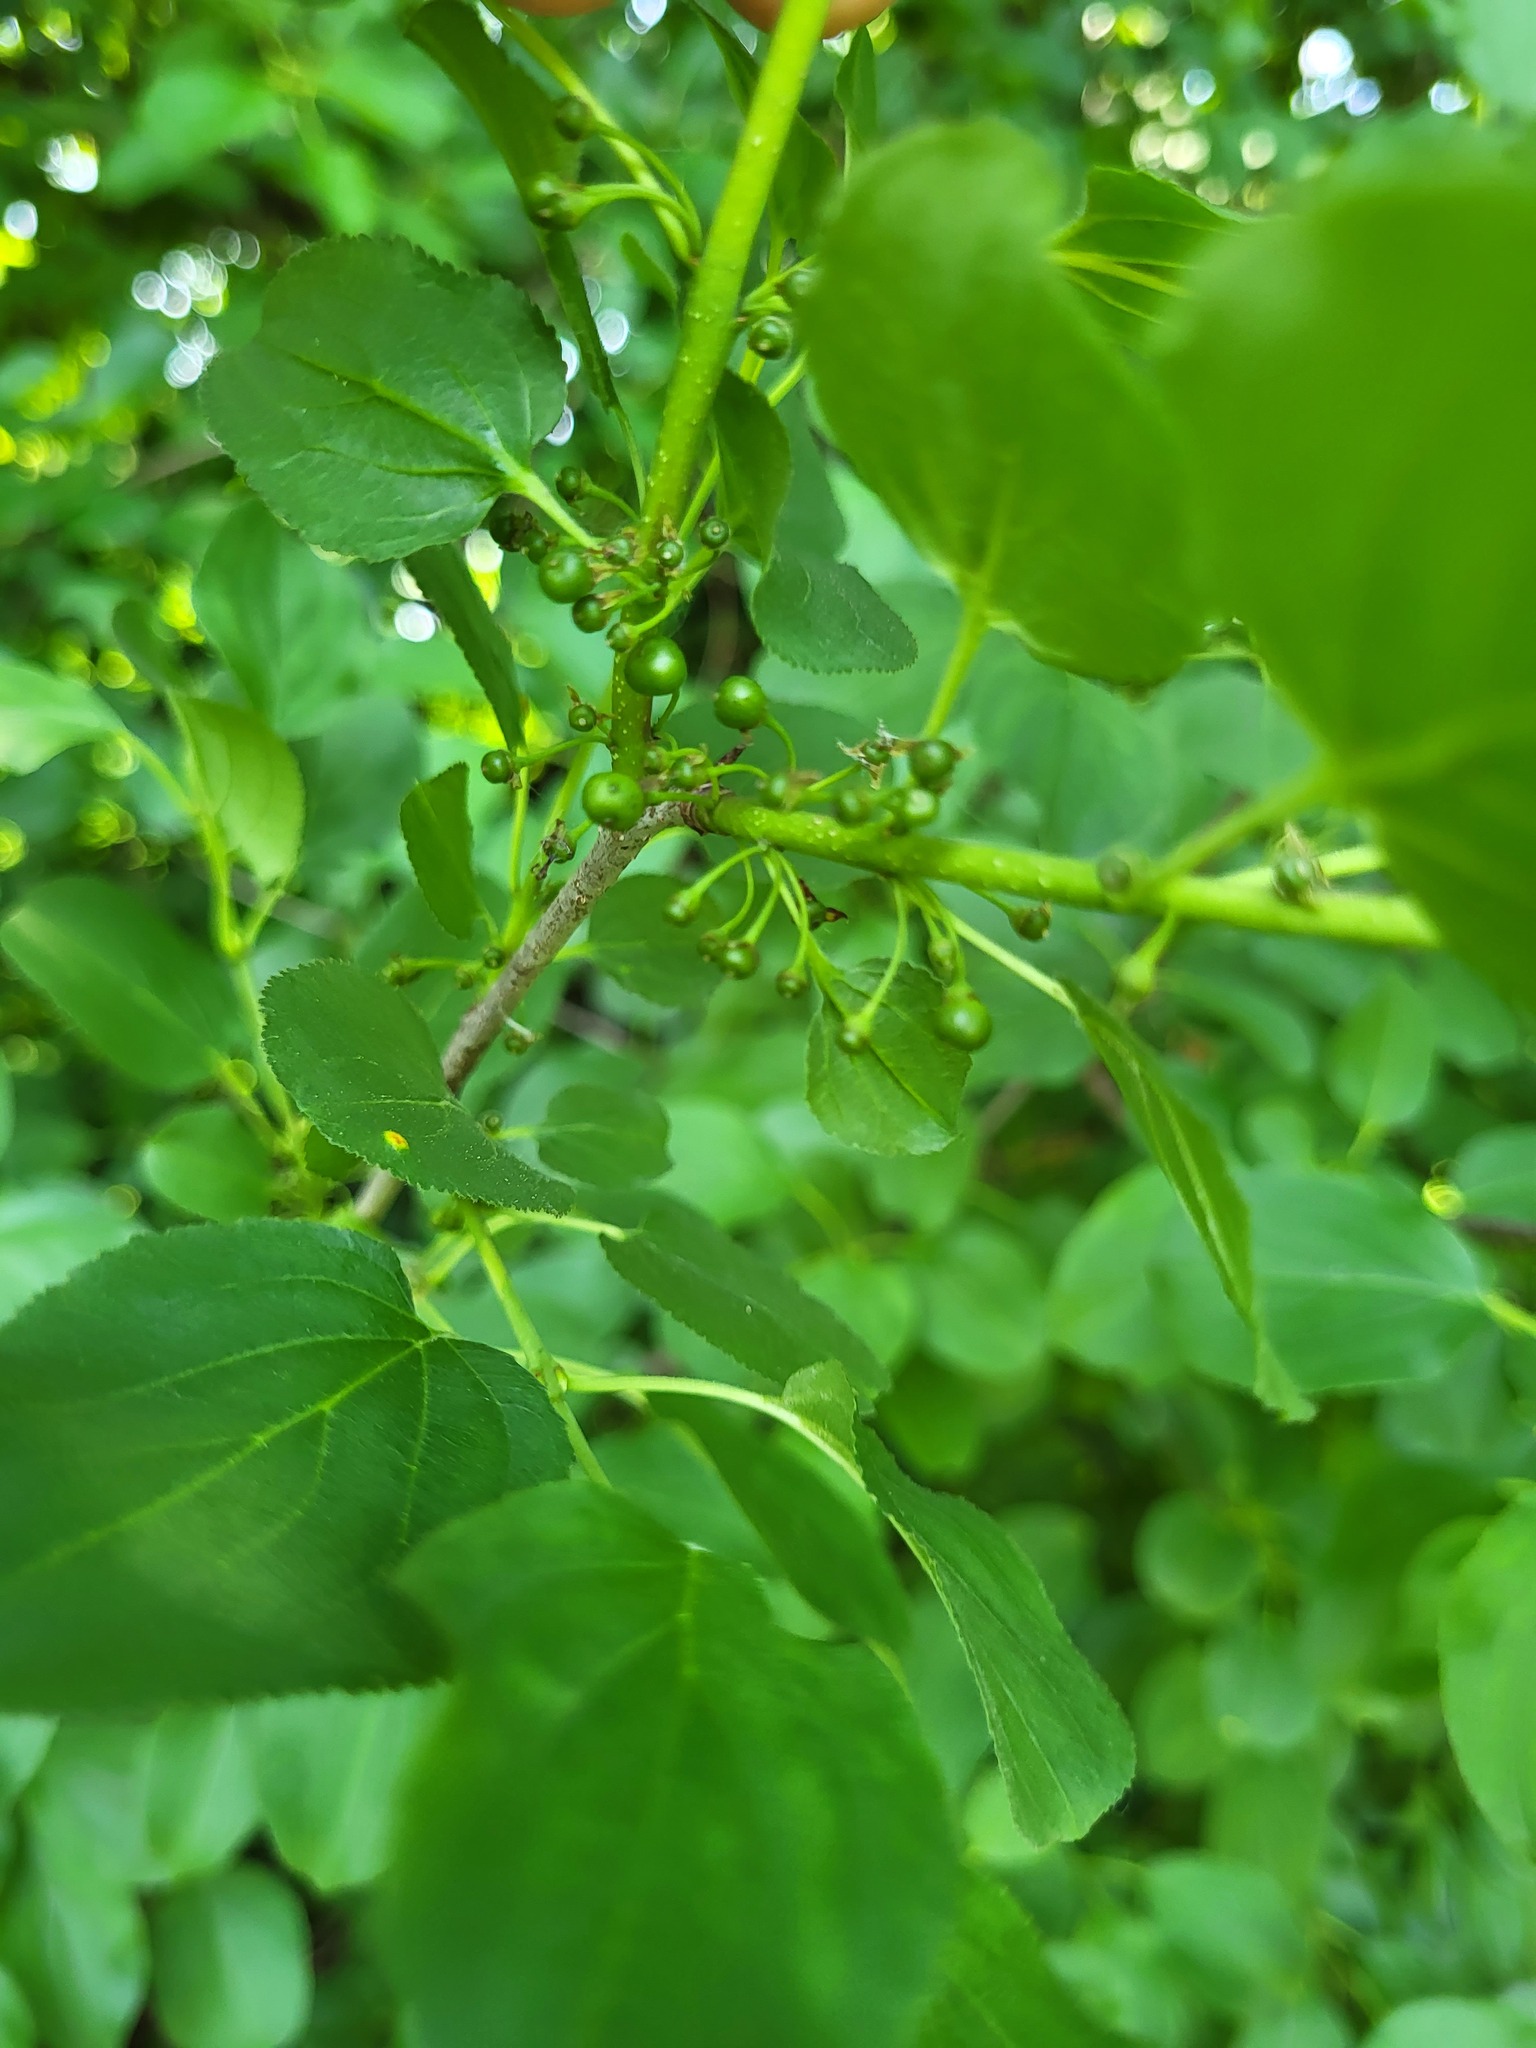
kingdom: Plantae
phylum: Tracheophyta
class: Magnoliopsida
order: Rosales
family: Rhamnaceae
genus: Rhamnus
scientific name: Rhamnus cathartica
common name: Common buckthorn
